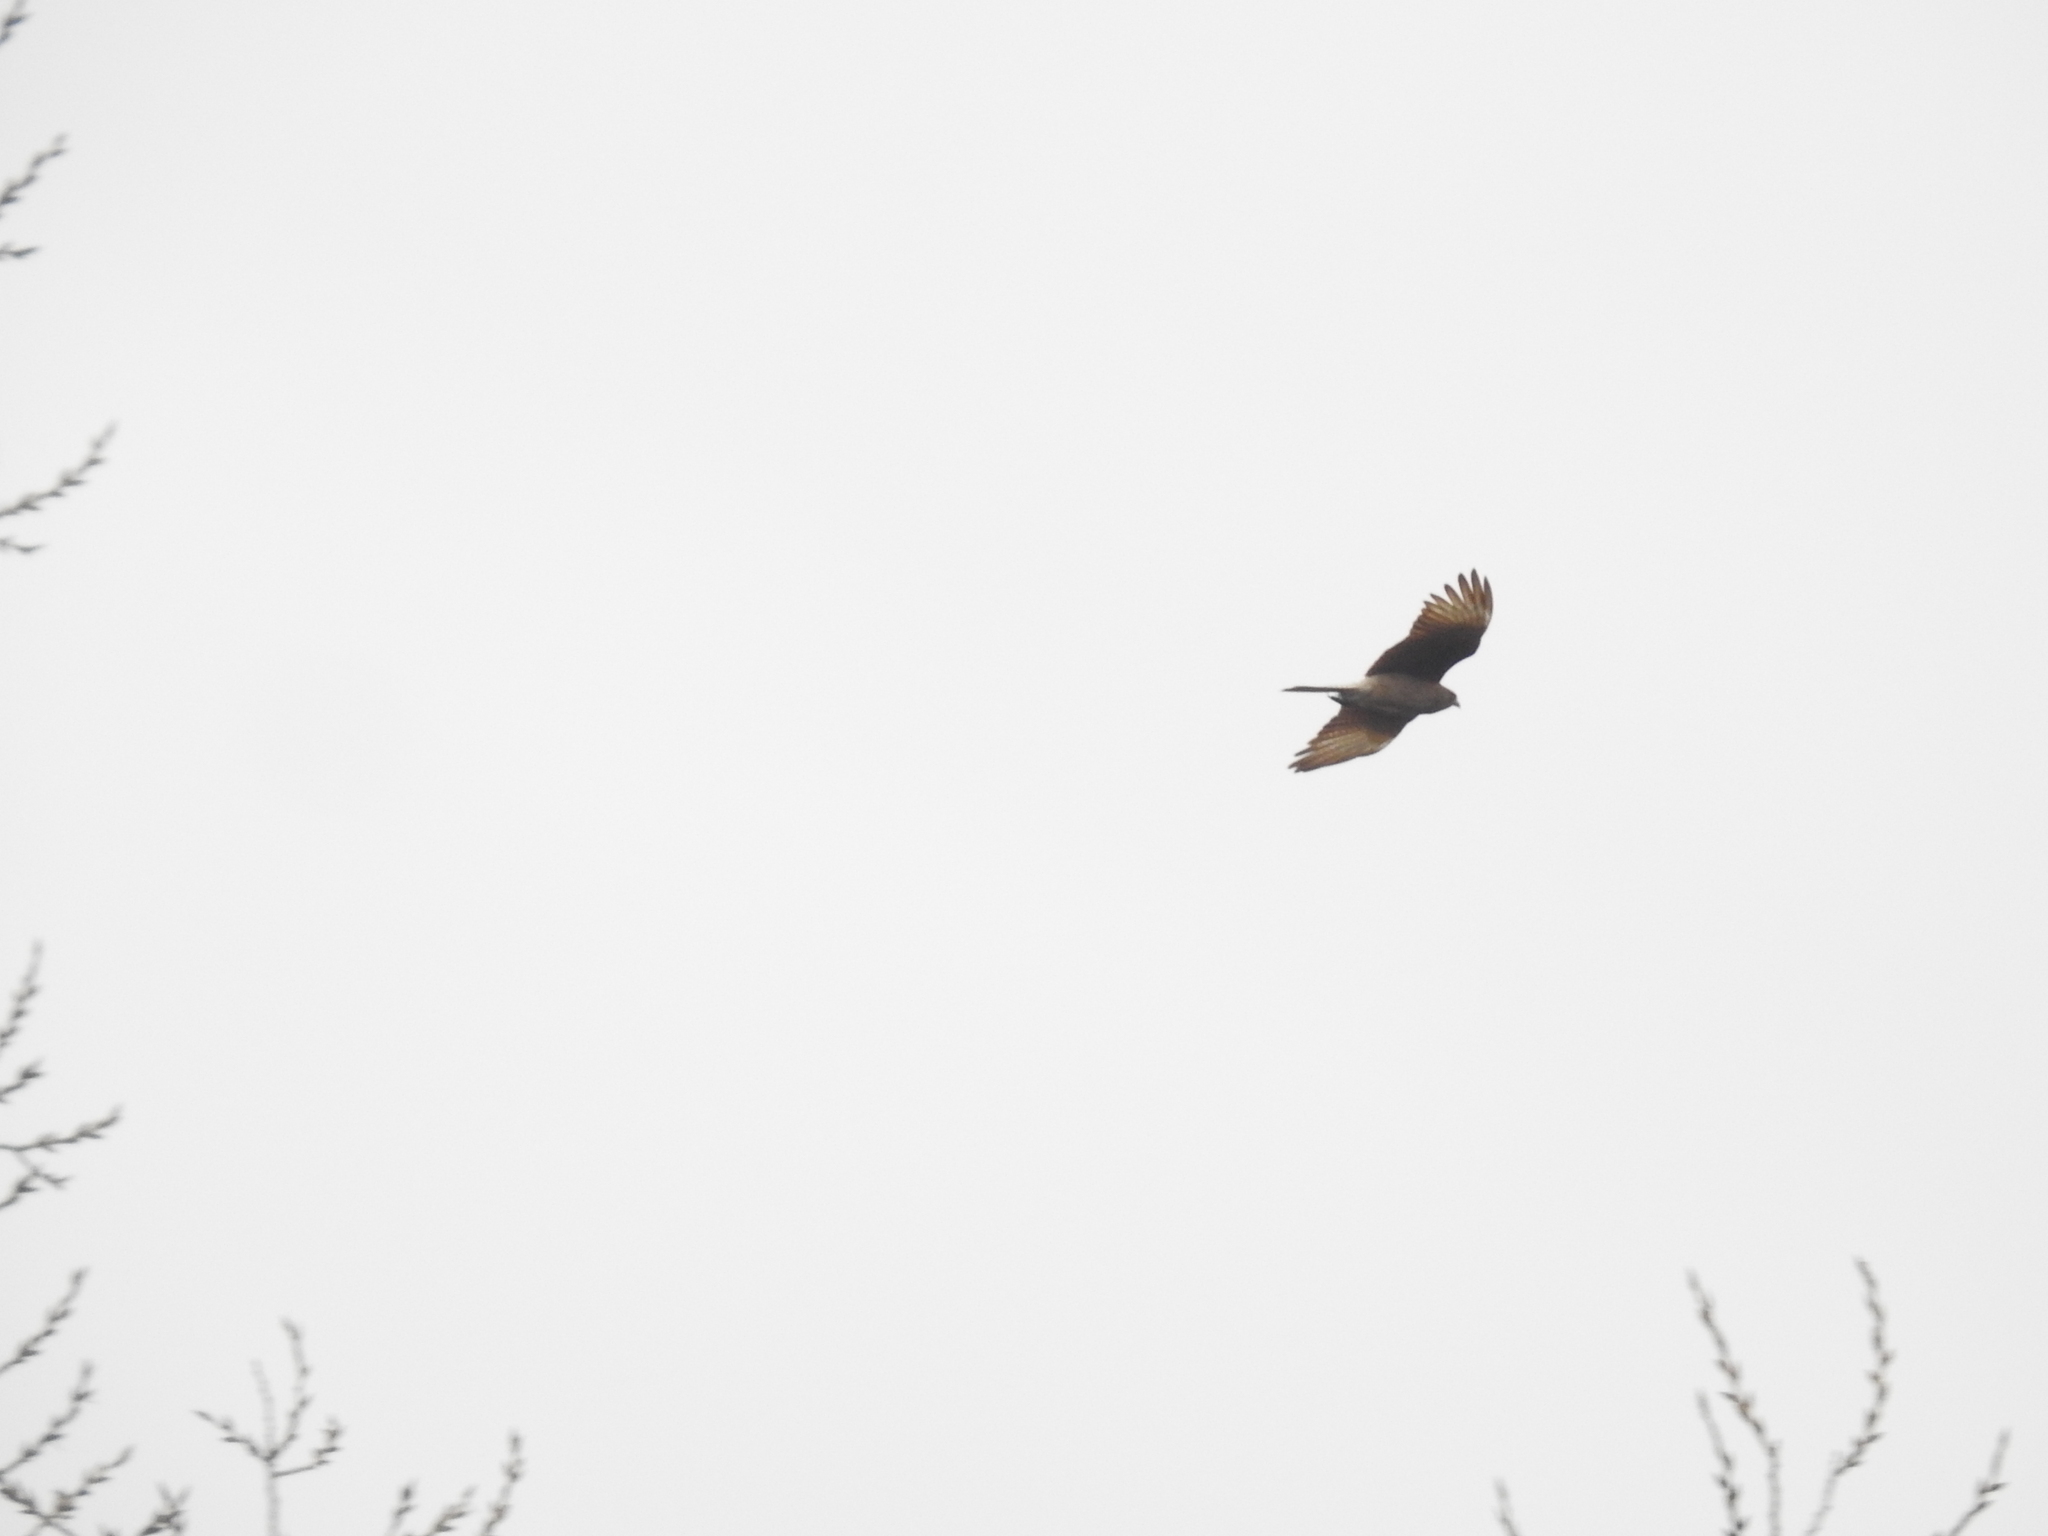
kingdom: Animalia
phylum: Chordata
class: Aves
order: Falconiformes
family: Falconidae
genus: Daptrius
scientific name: Daptrius
